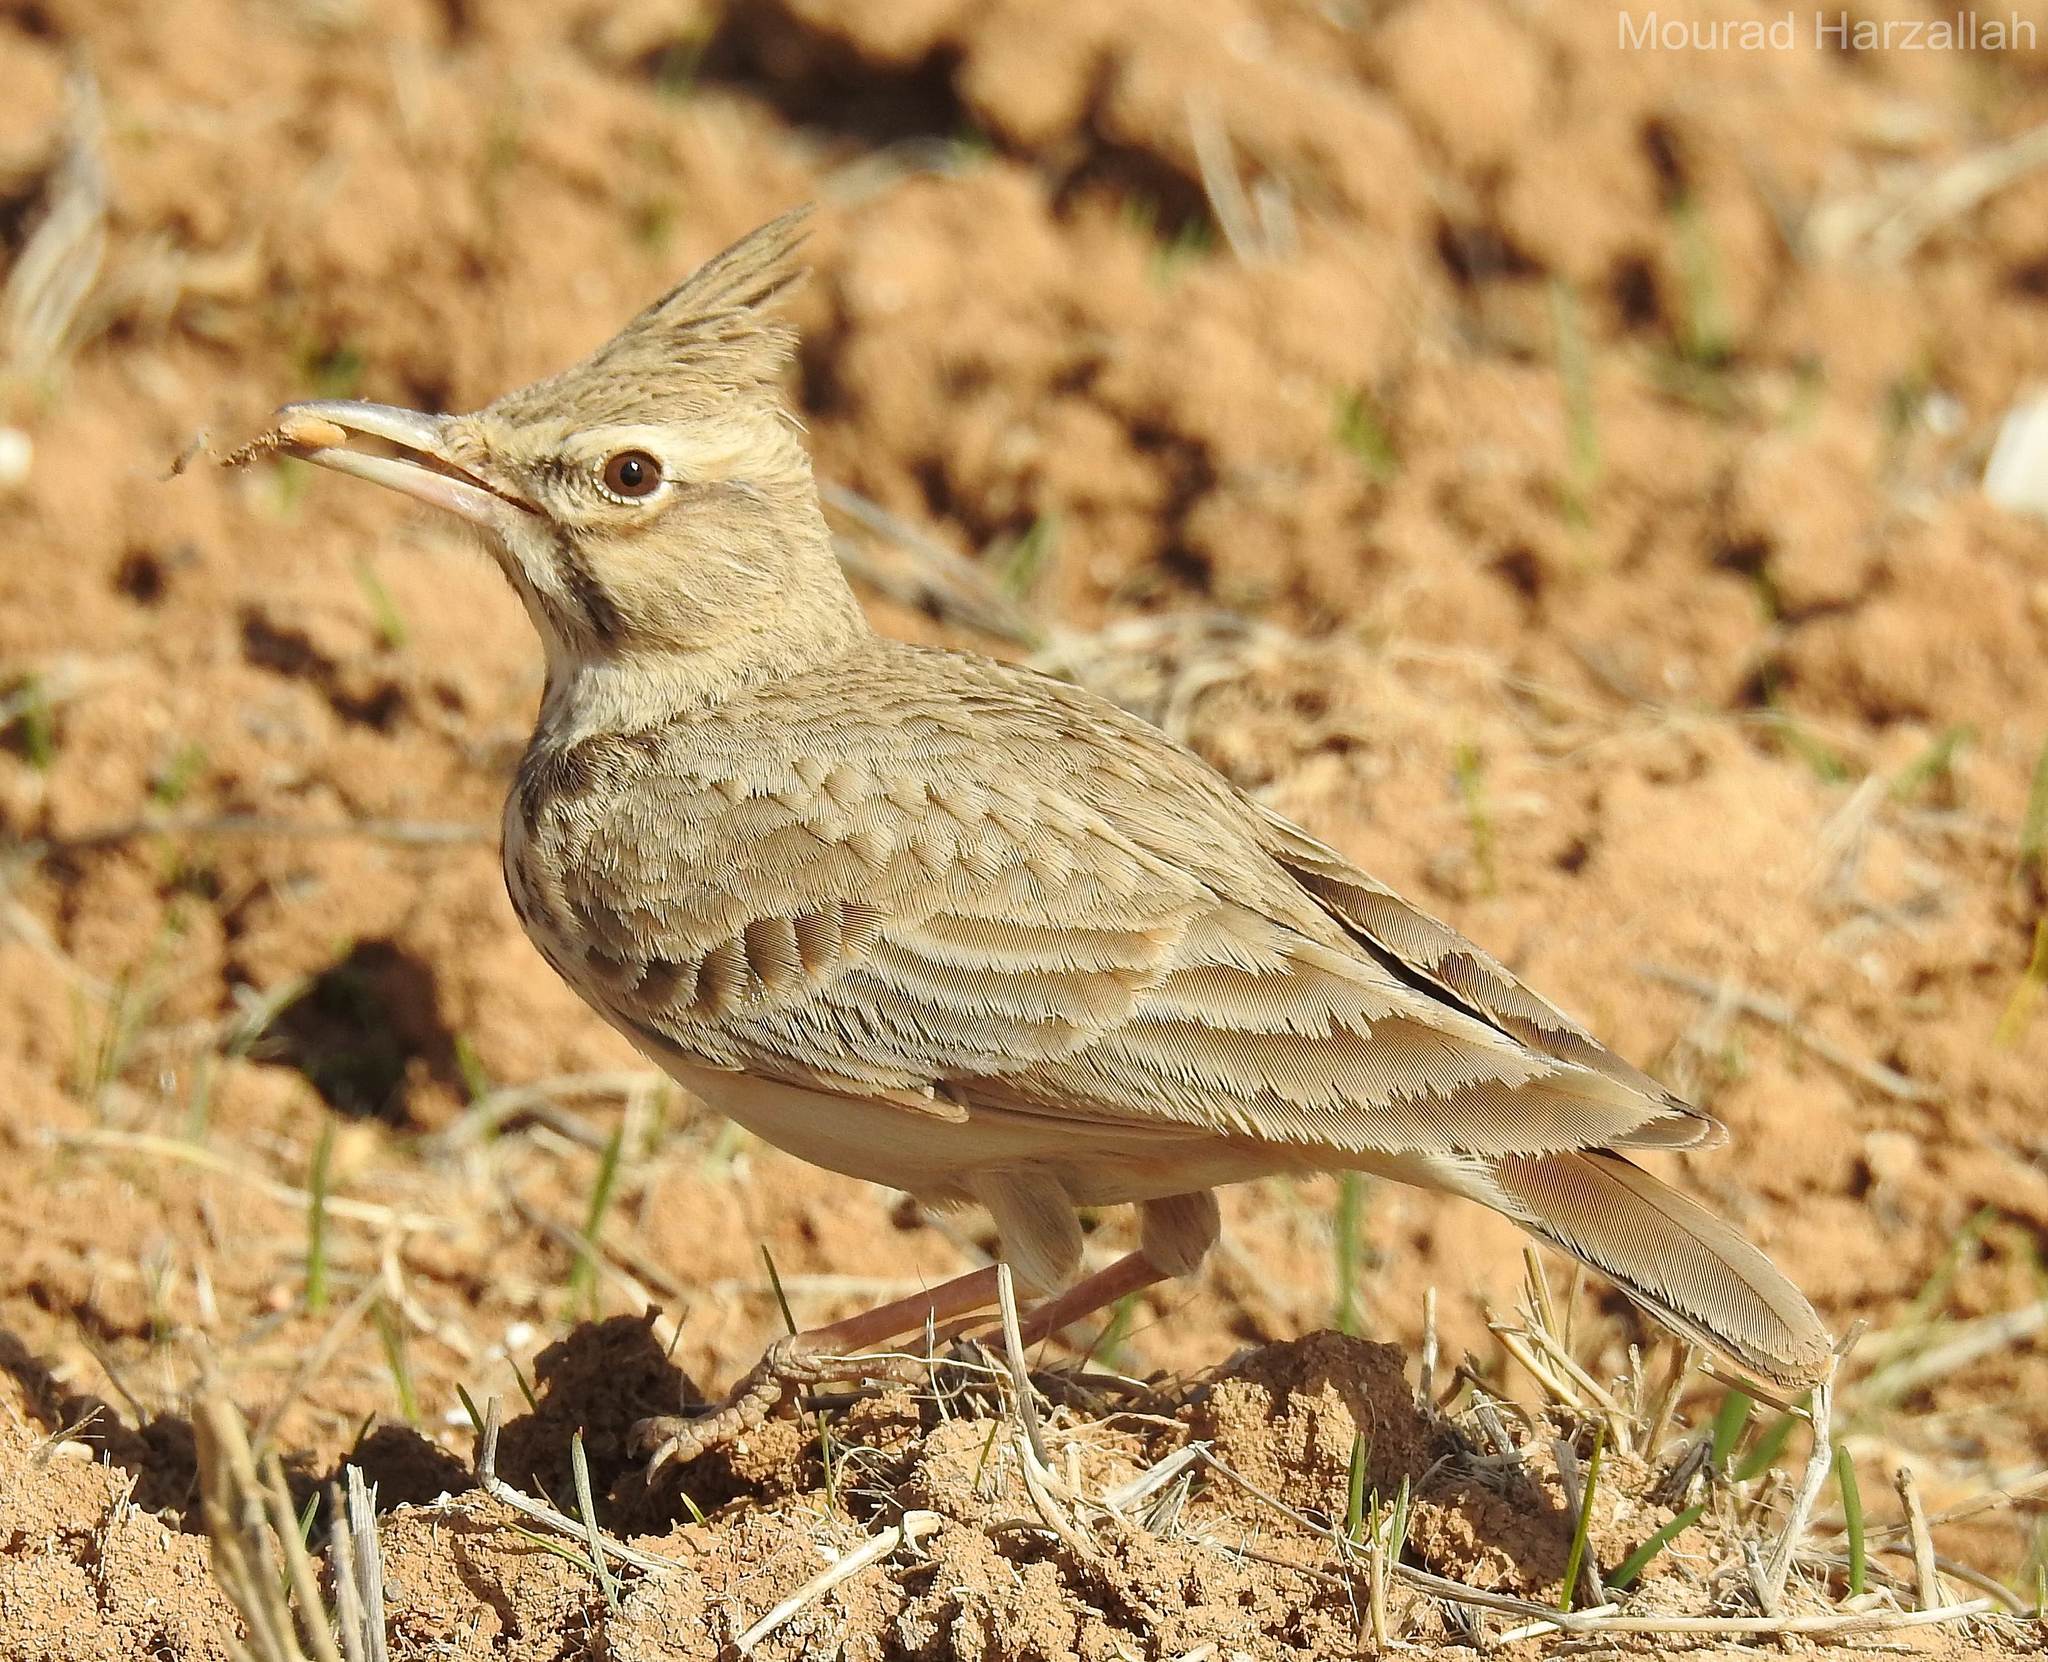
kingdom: Animalia
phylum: Chordata
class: Aves
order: Passeriformes
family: Alaudidae
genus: Galerida
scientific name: Galerida cristata
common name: Crested lark
